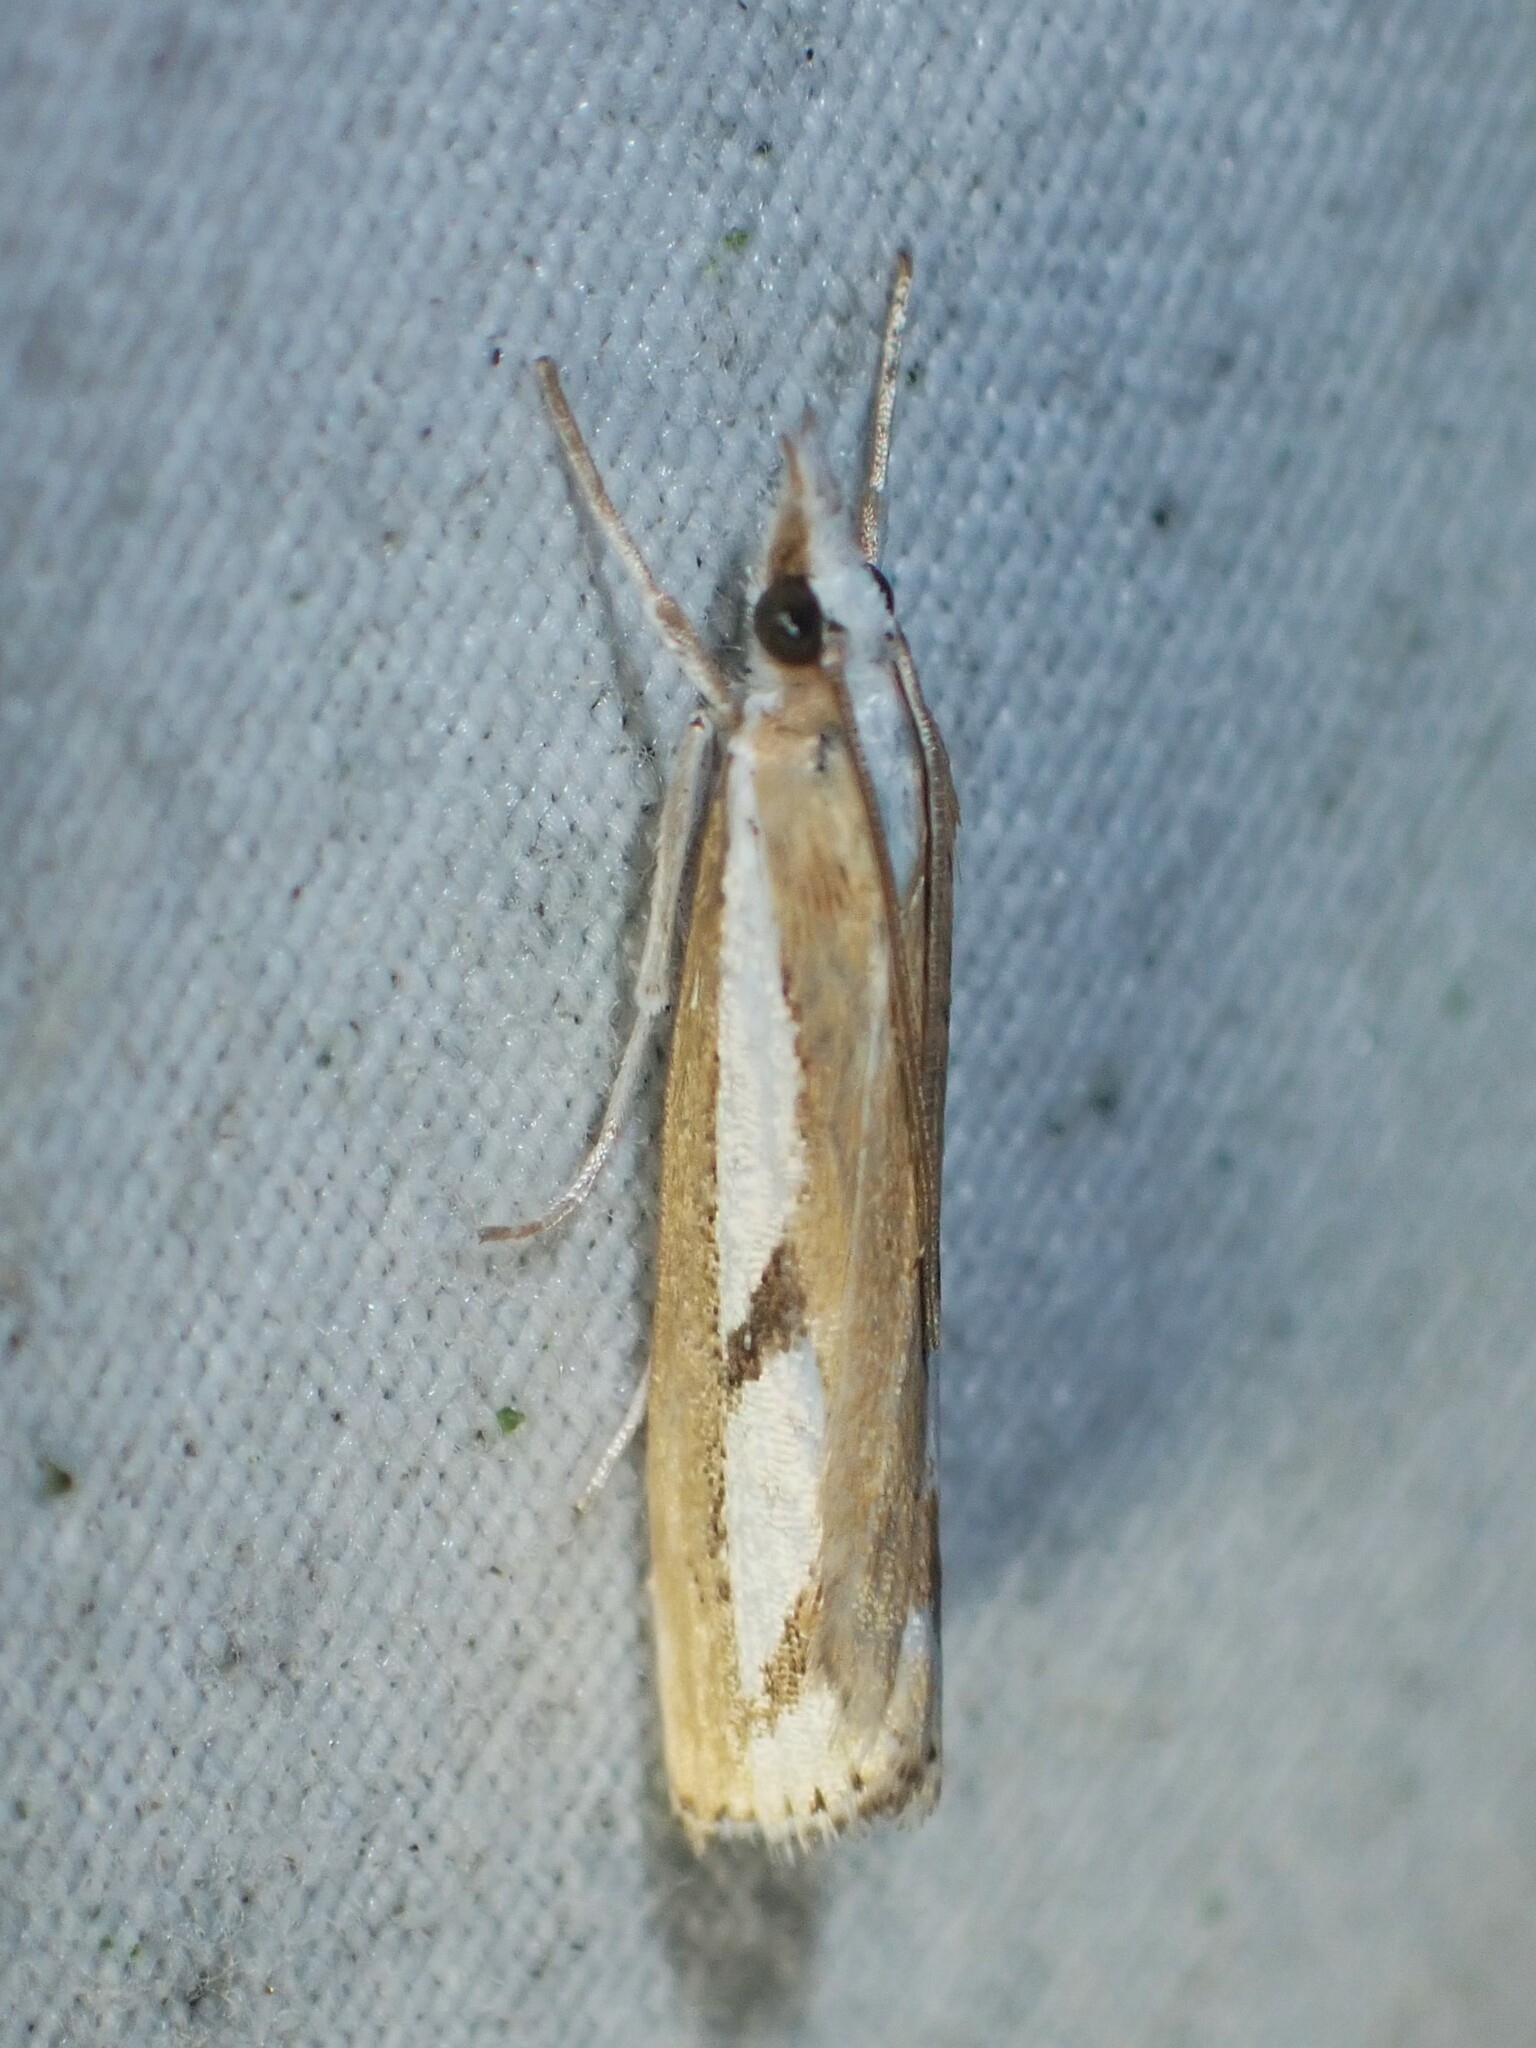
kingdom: Animalia
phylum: Arthropoda
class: Insecta
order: Lepidoptera
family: Crambidae
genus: Catoptria
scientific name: Catoptria latiradiellus
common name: Two-banded catoptria moth
